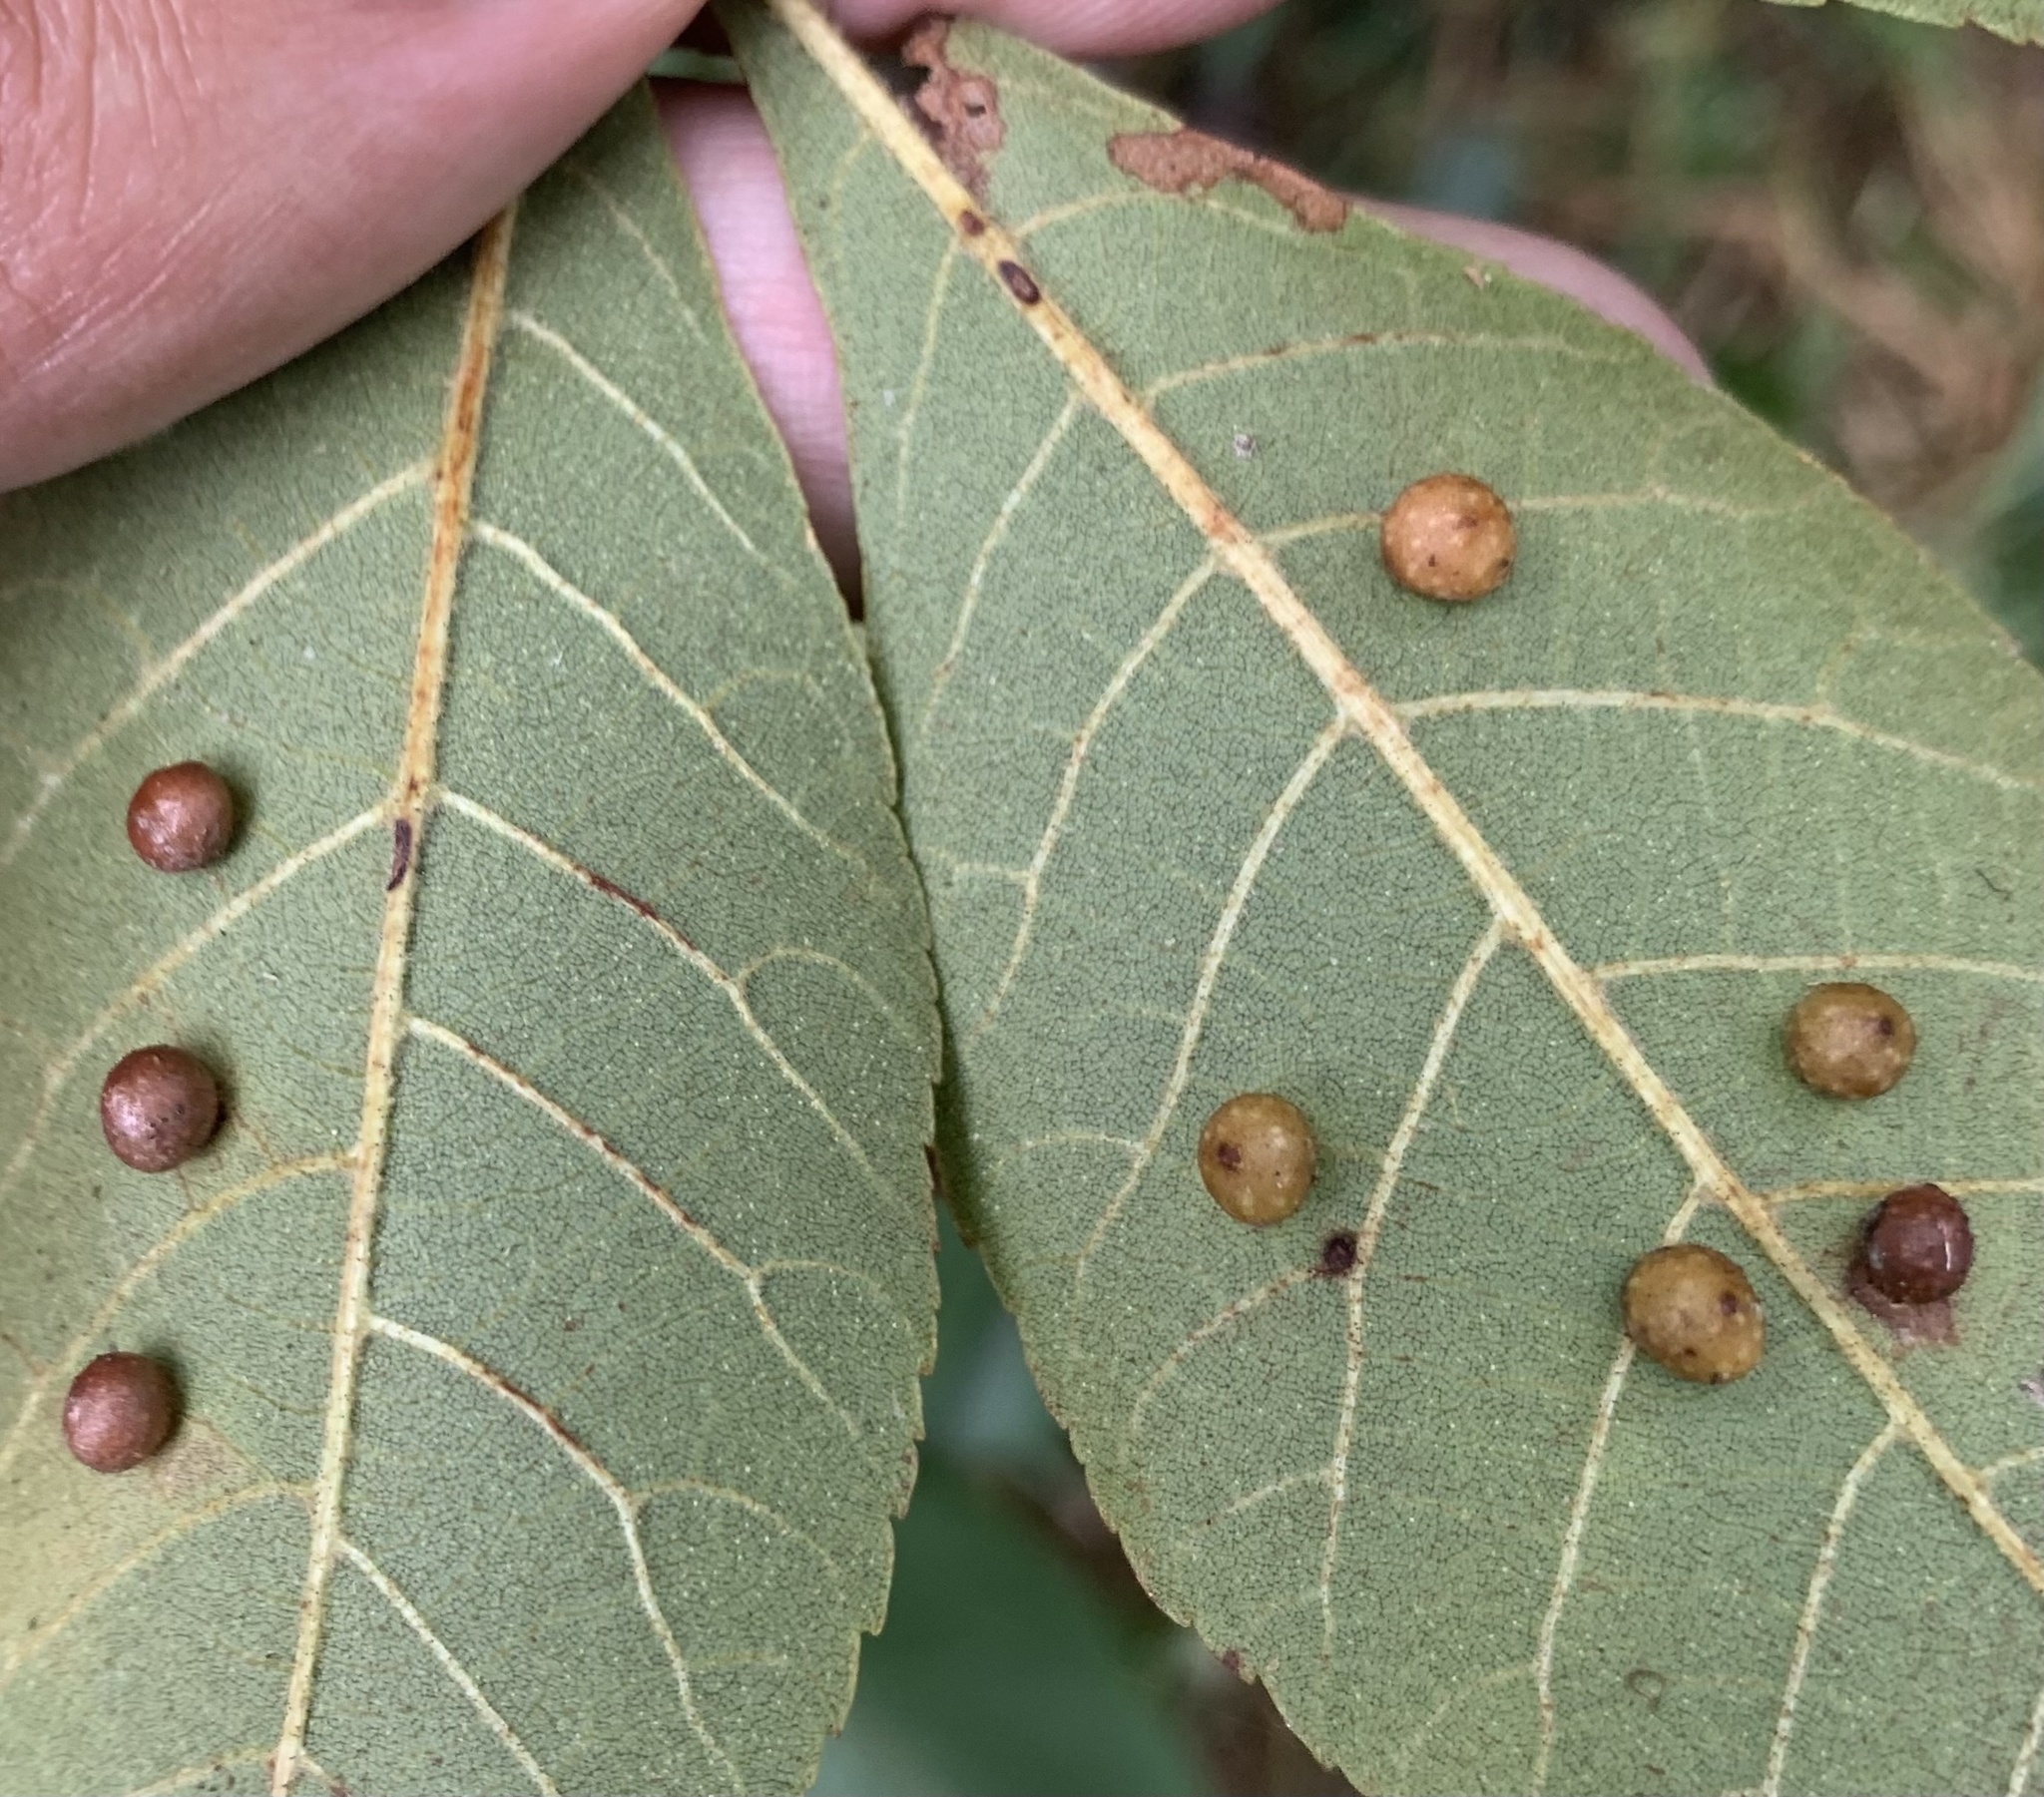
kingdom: Animalia
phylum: Arthropoda
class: Insecta
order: Diptera
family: Cecidomyiidae
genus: Caryomyia
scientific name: Caryomyia tuberculata
